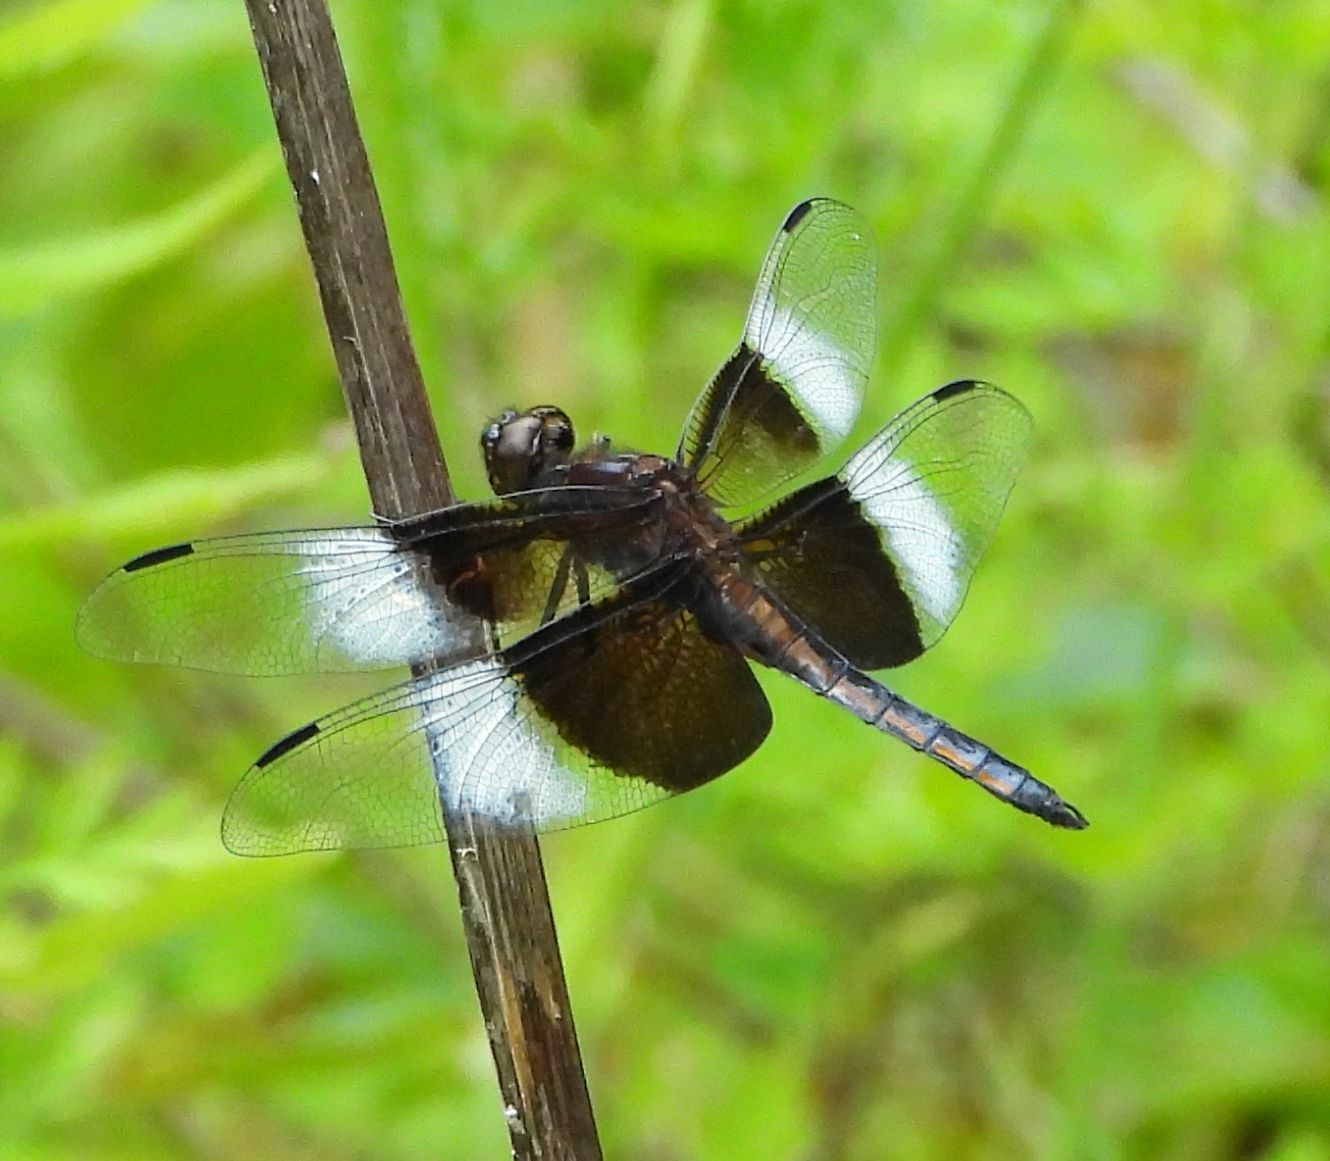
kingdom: Animalia
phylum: Arthropoda
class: Insecta
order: Odonata
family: Libellulidae
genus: Libellula
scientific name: Libellula luctuosa
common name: Widow skimmer
